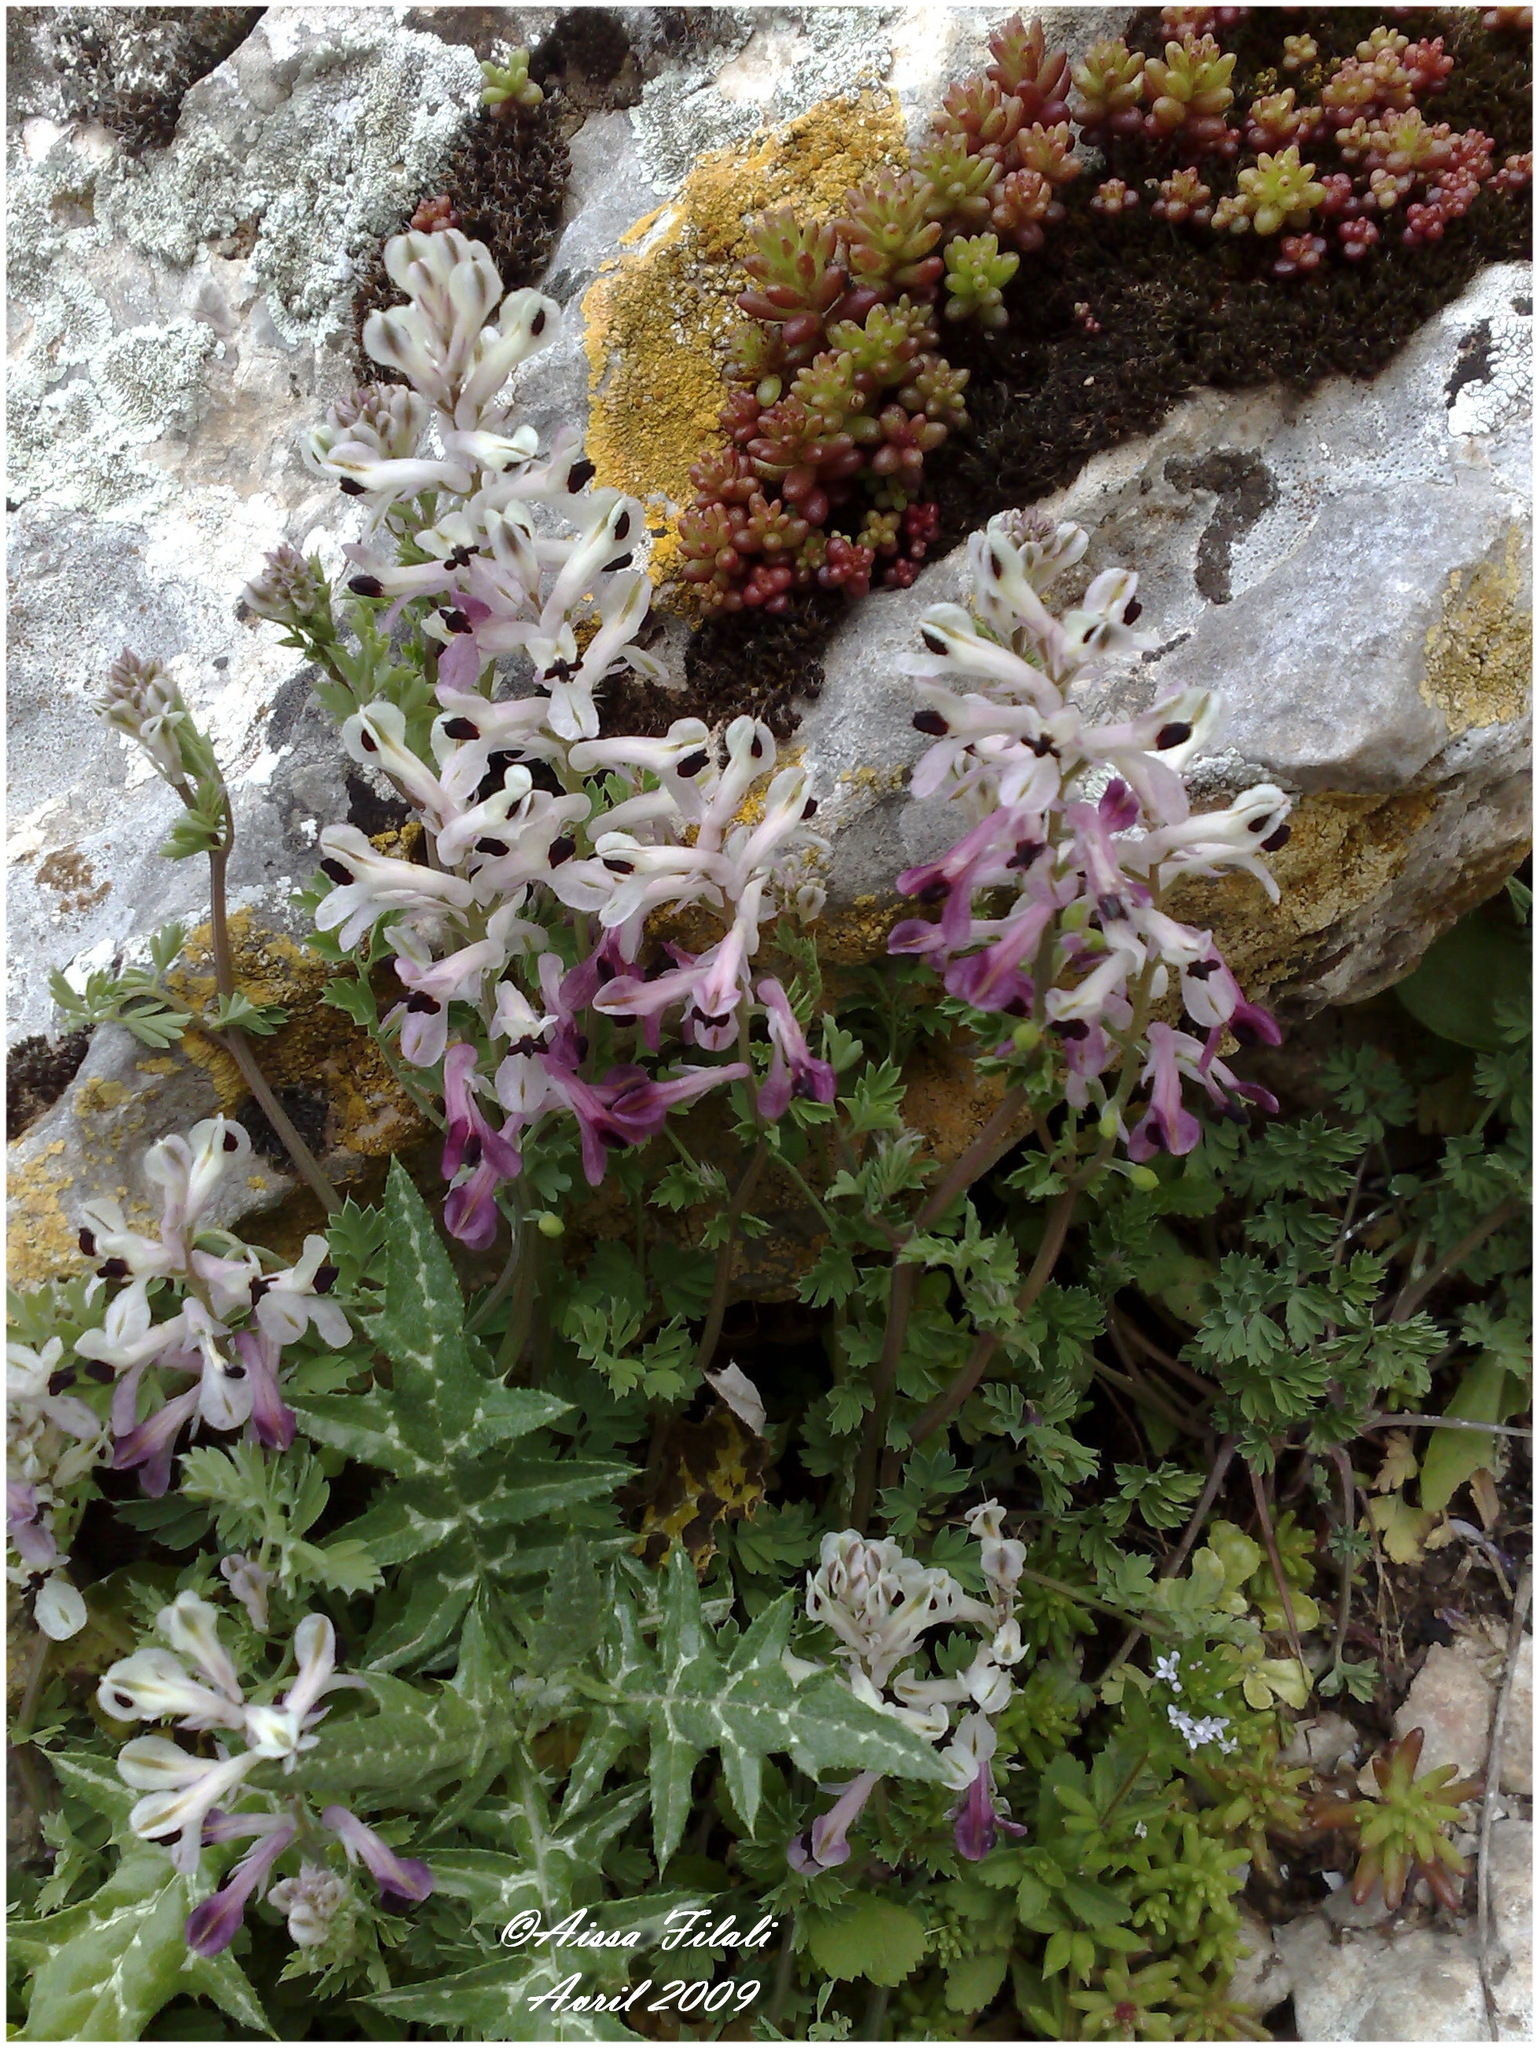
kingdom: Plantae
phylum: Tracheophyta
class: Magnoliopsida
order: Ranunculales
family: Papaveraceae
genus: Fumaria
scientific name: Fumaria agraria
